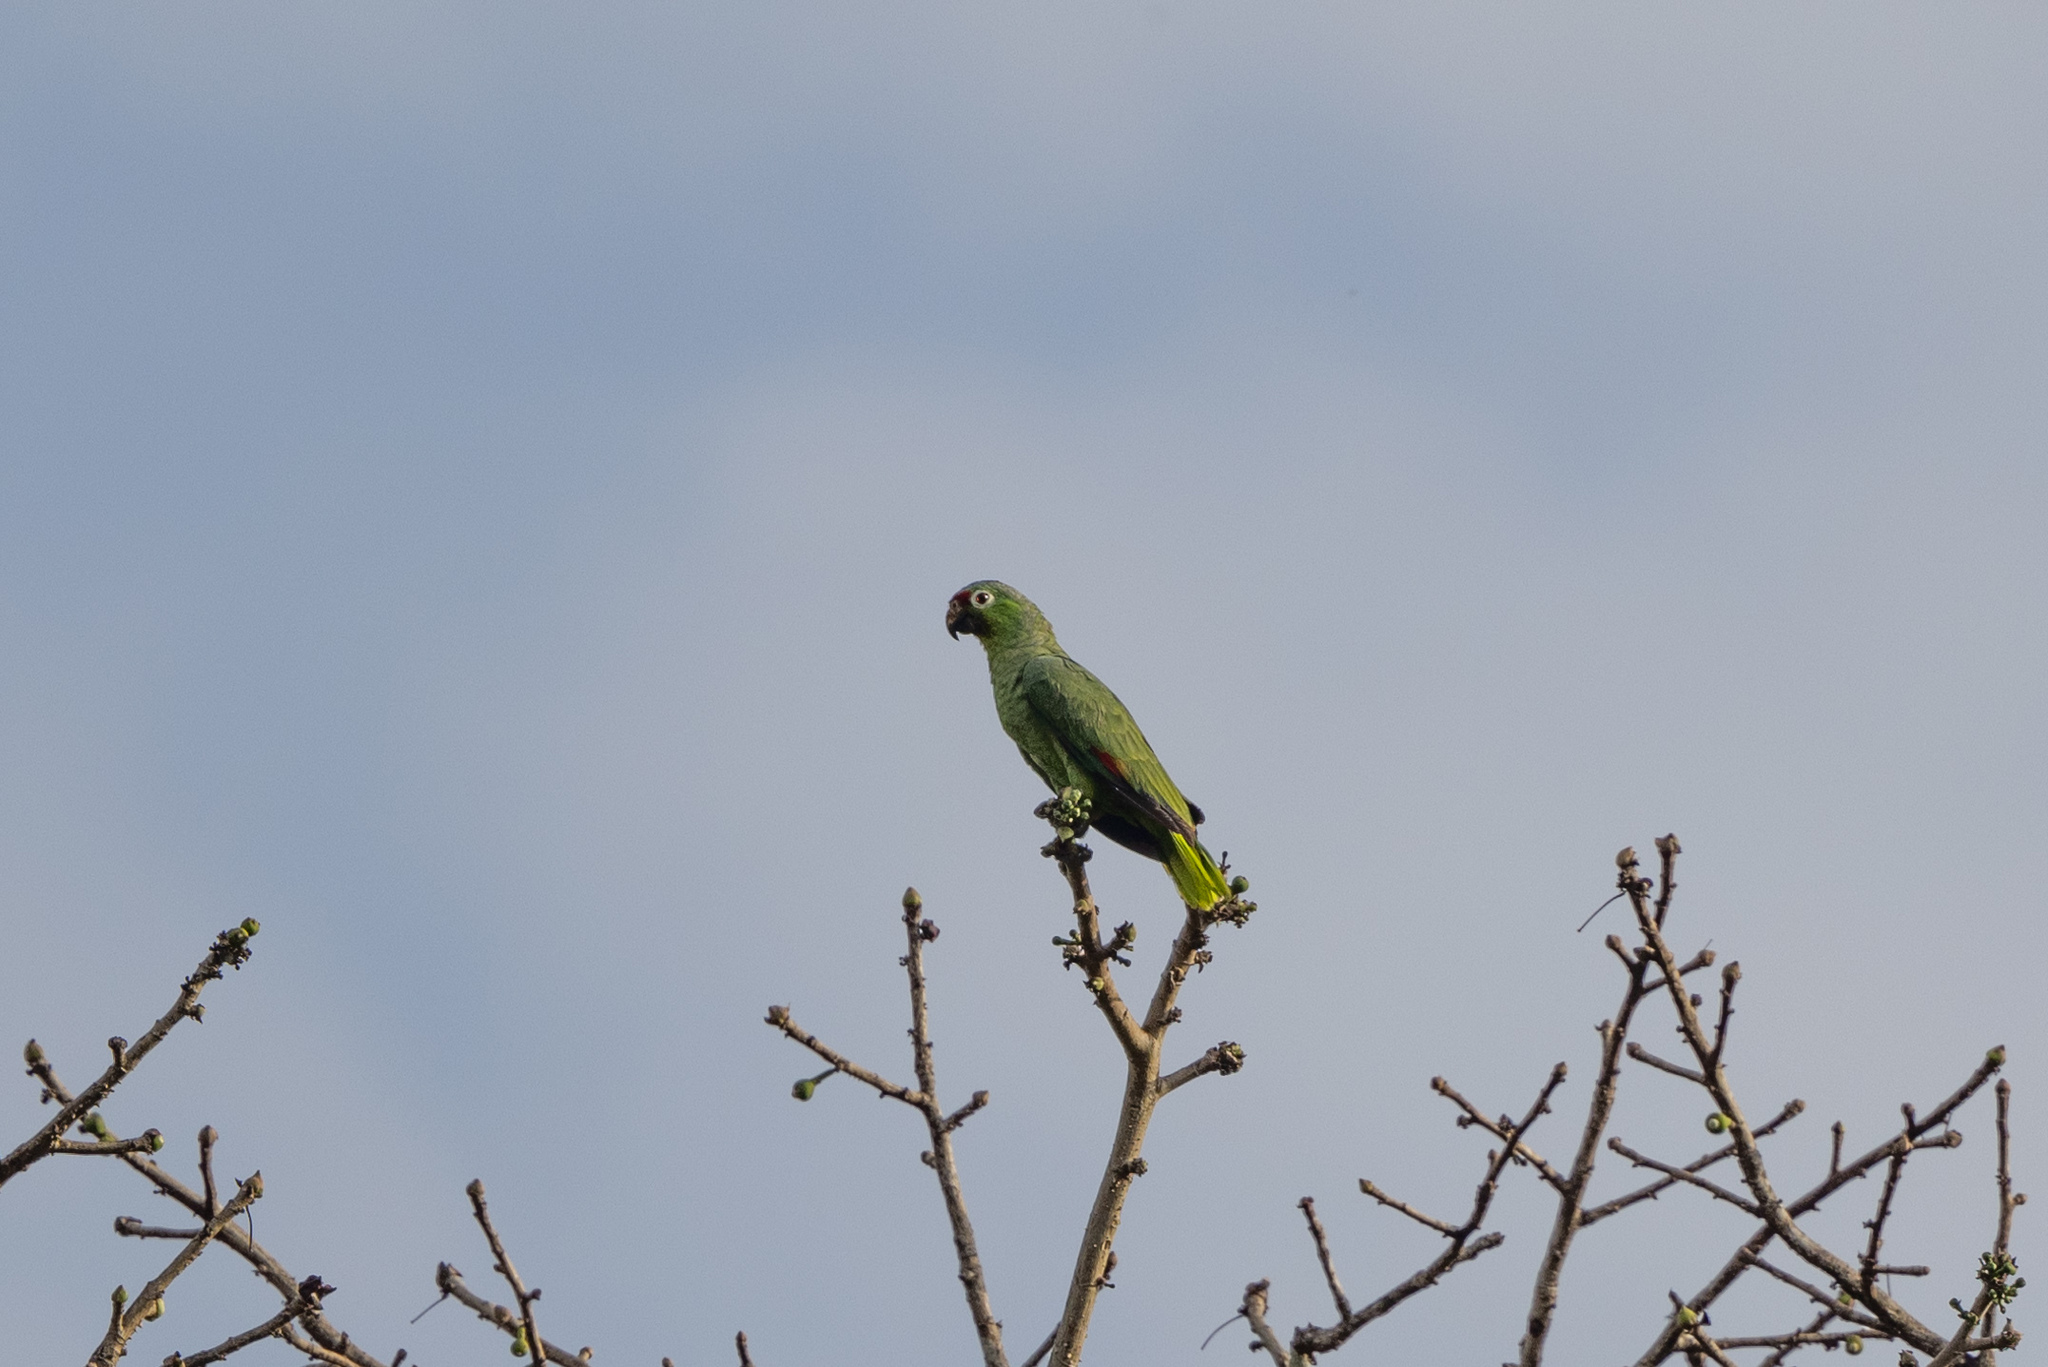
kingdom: Animalia
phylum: Chordata
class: Aves
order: Psittaciformes
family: Psittacidae
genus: Amazona
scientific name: Amazona autumnalis
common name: Red-lored amazon
